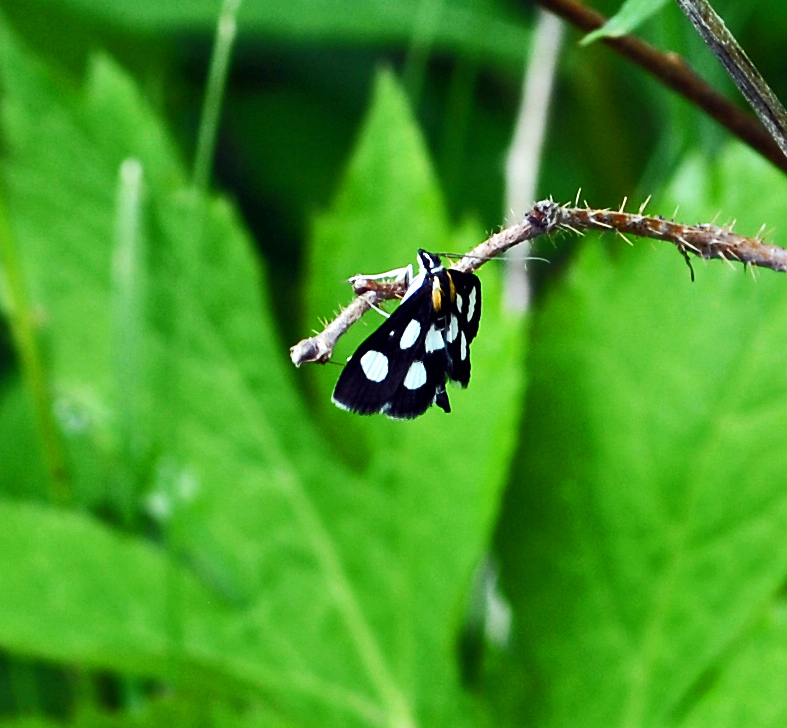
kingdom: Animalia
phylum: Arthropoda
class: Insecta
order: Lepidoptera
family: Crambidae
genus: Anania
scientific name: Anania funebris
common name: White-spotted sable moth
